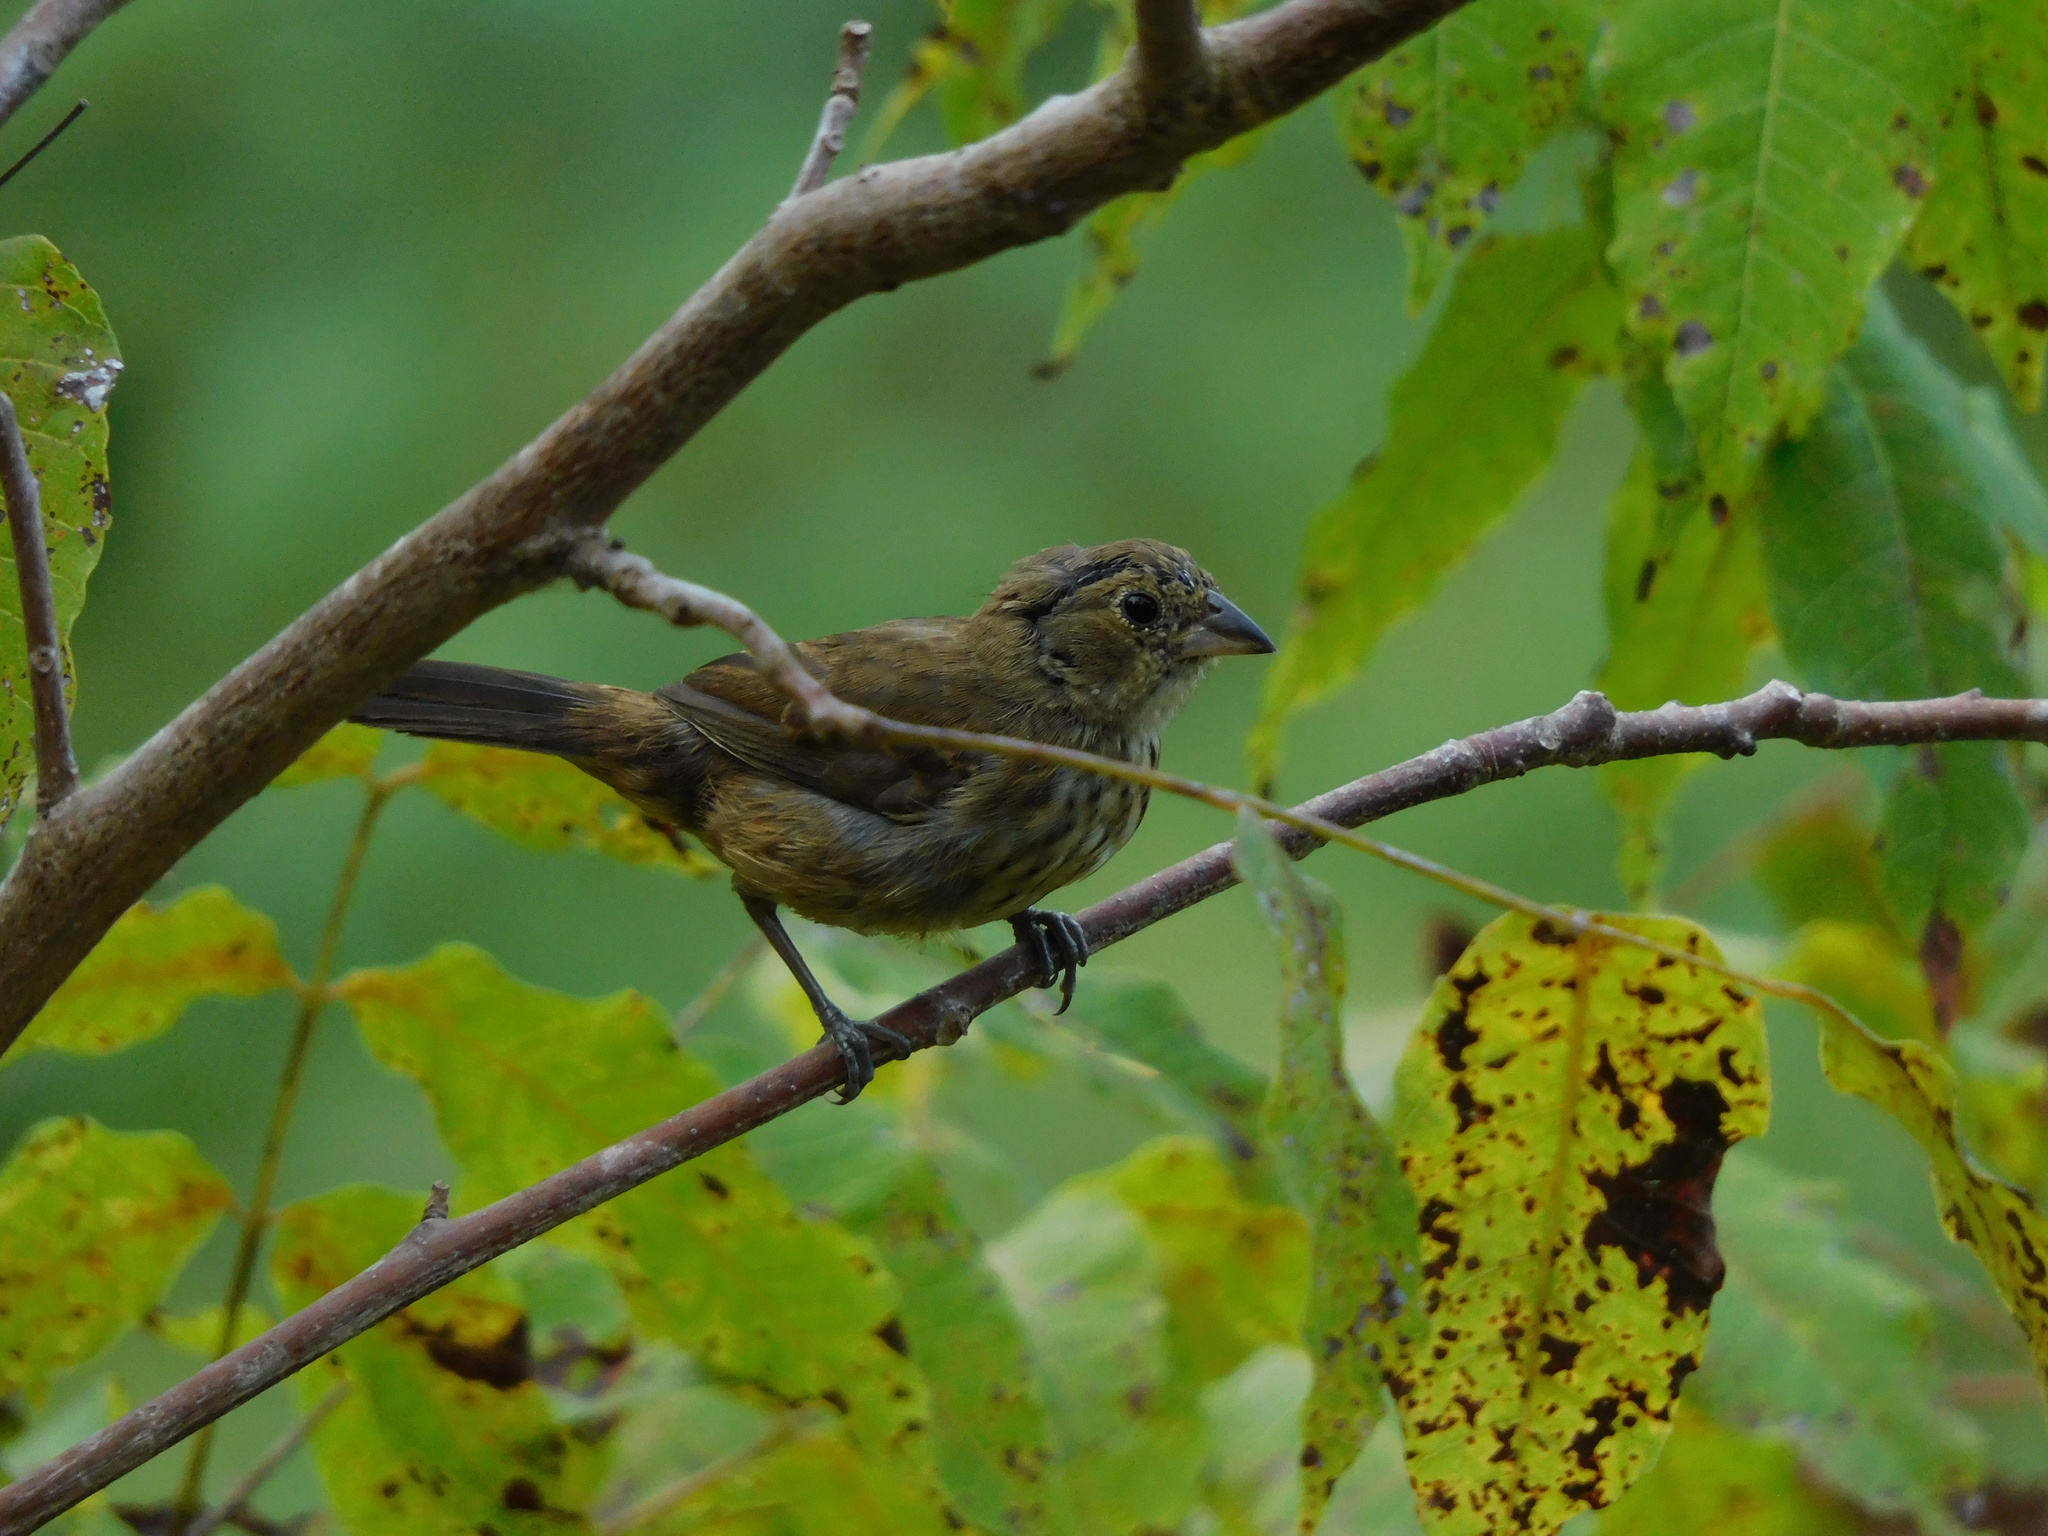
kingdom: Animalia
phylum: Chordata
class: Aves
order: Passeriformes
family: Thraupidae
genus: Volatinia
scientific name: Volatinia jacarina
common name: Blue-black grassquit
